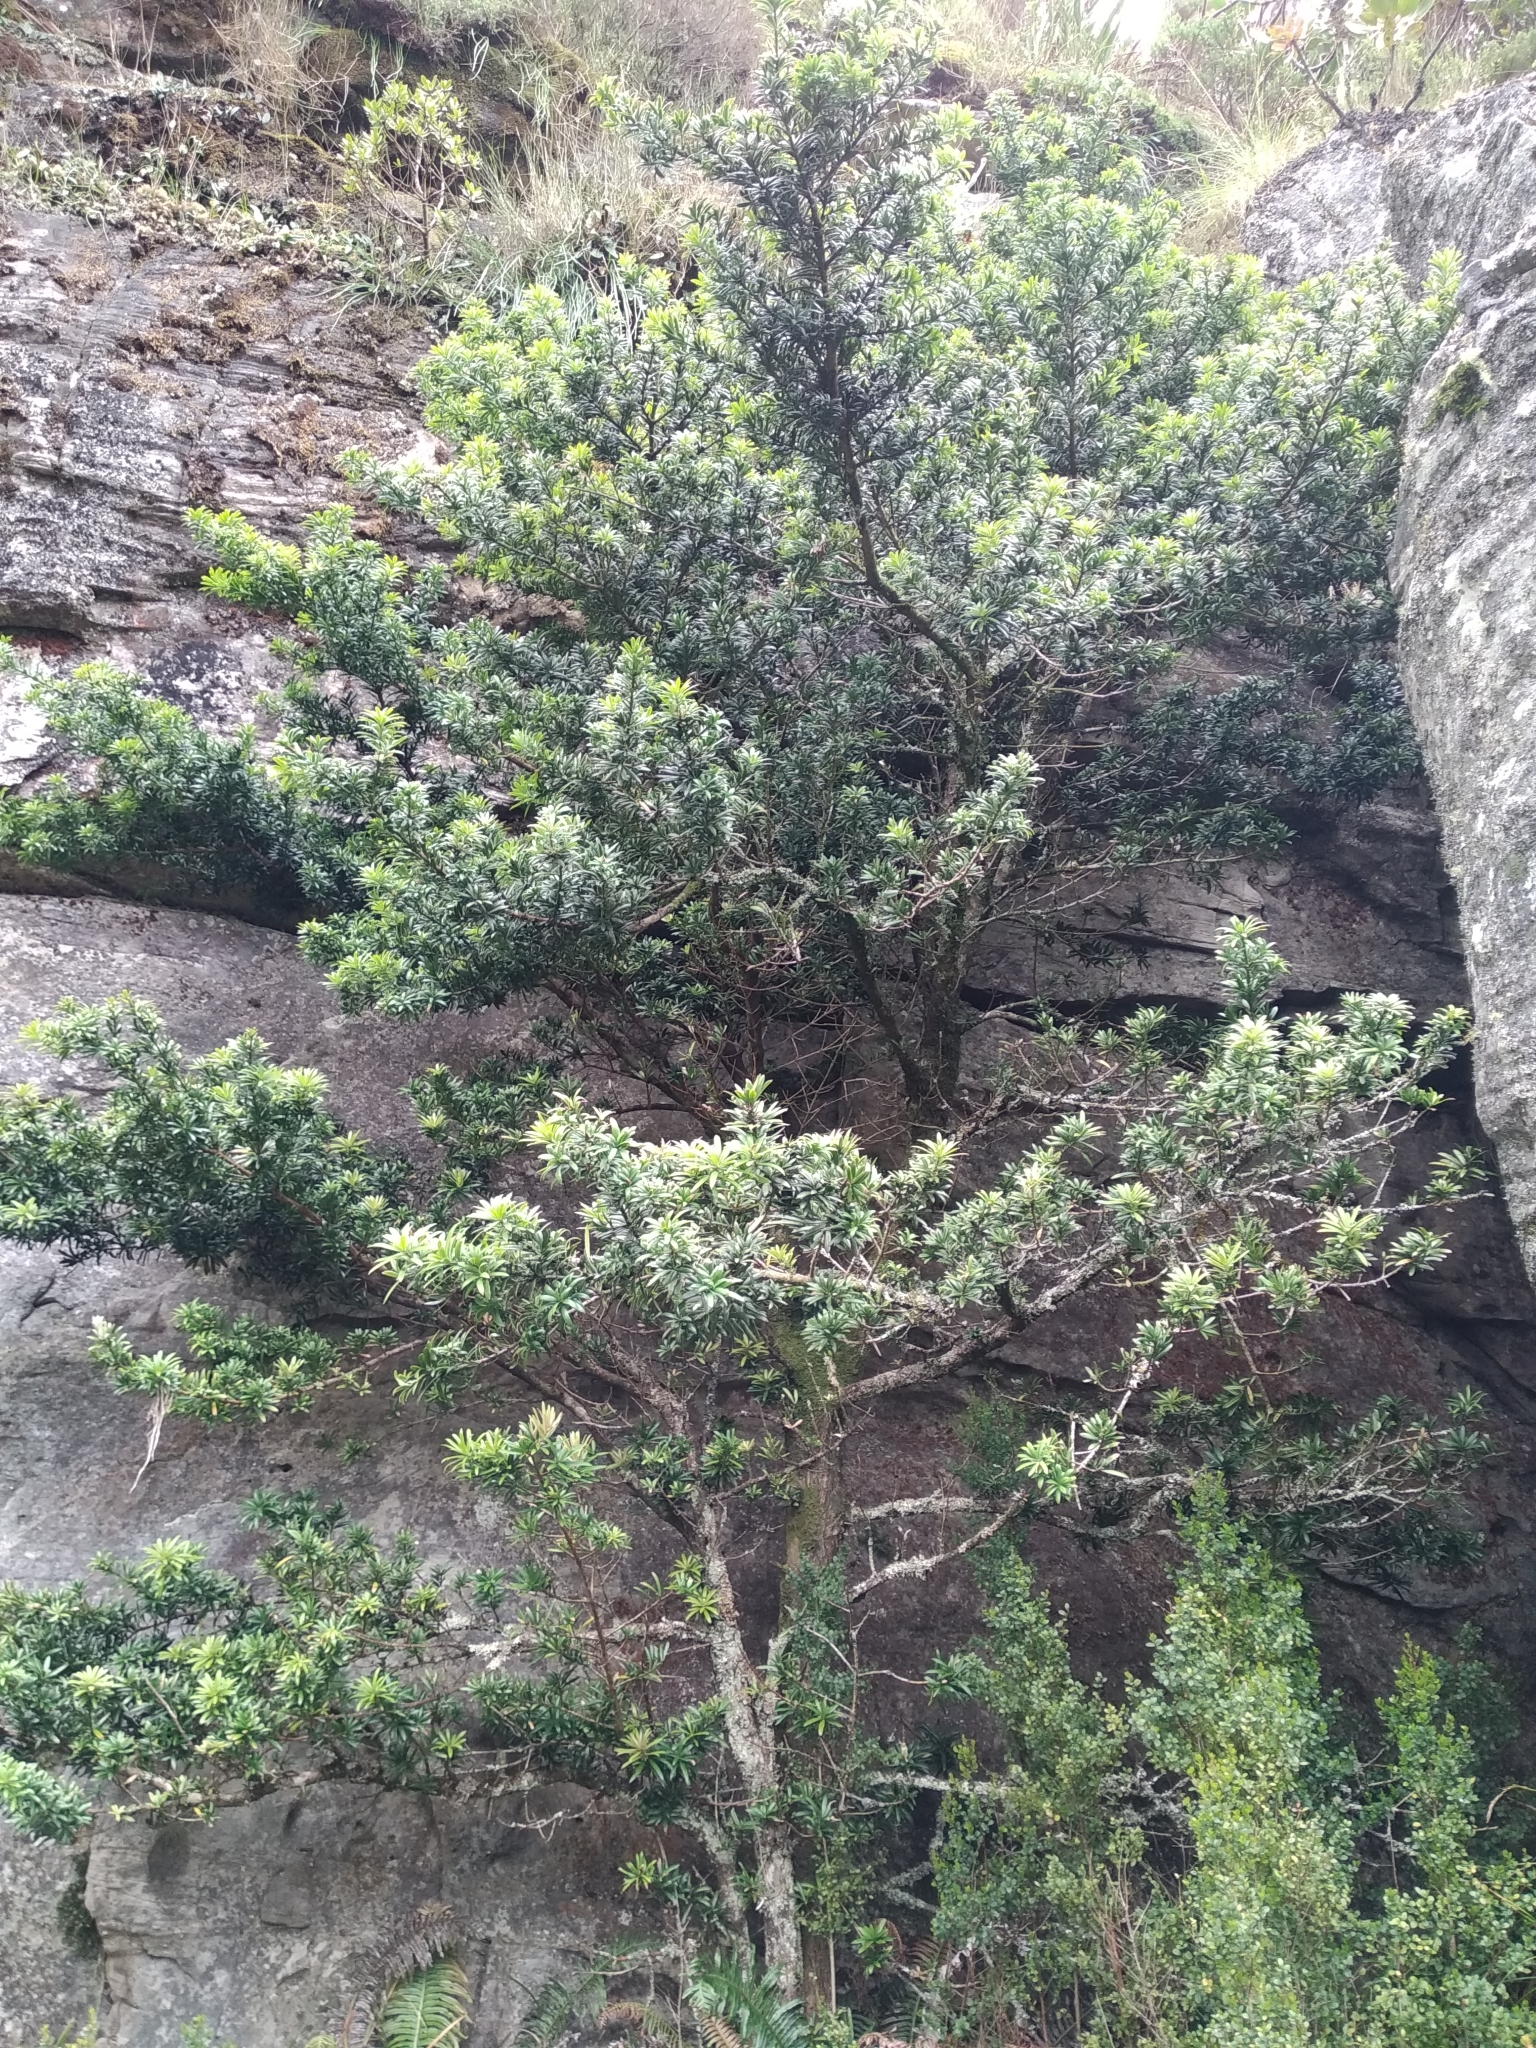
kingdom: Plantae
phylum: Tracheophyta
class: Pinopsida
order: Pinales
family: Podocarpaceae
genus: Podocarpus
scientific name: Podocarpus latifolius
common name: True yellowwood
